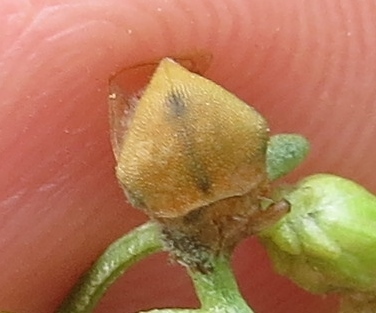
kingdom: Animalia
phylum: Arthropoda
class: Insecta
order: Hemiptera
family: Membracidae
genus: Spissistilus
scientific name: Spissistilus festina
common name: Membracid bug
